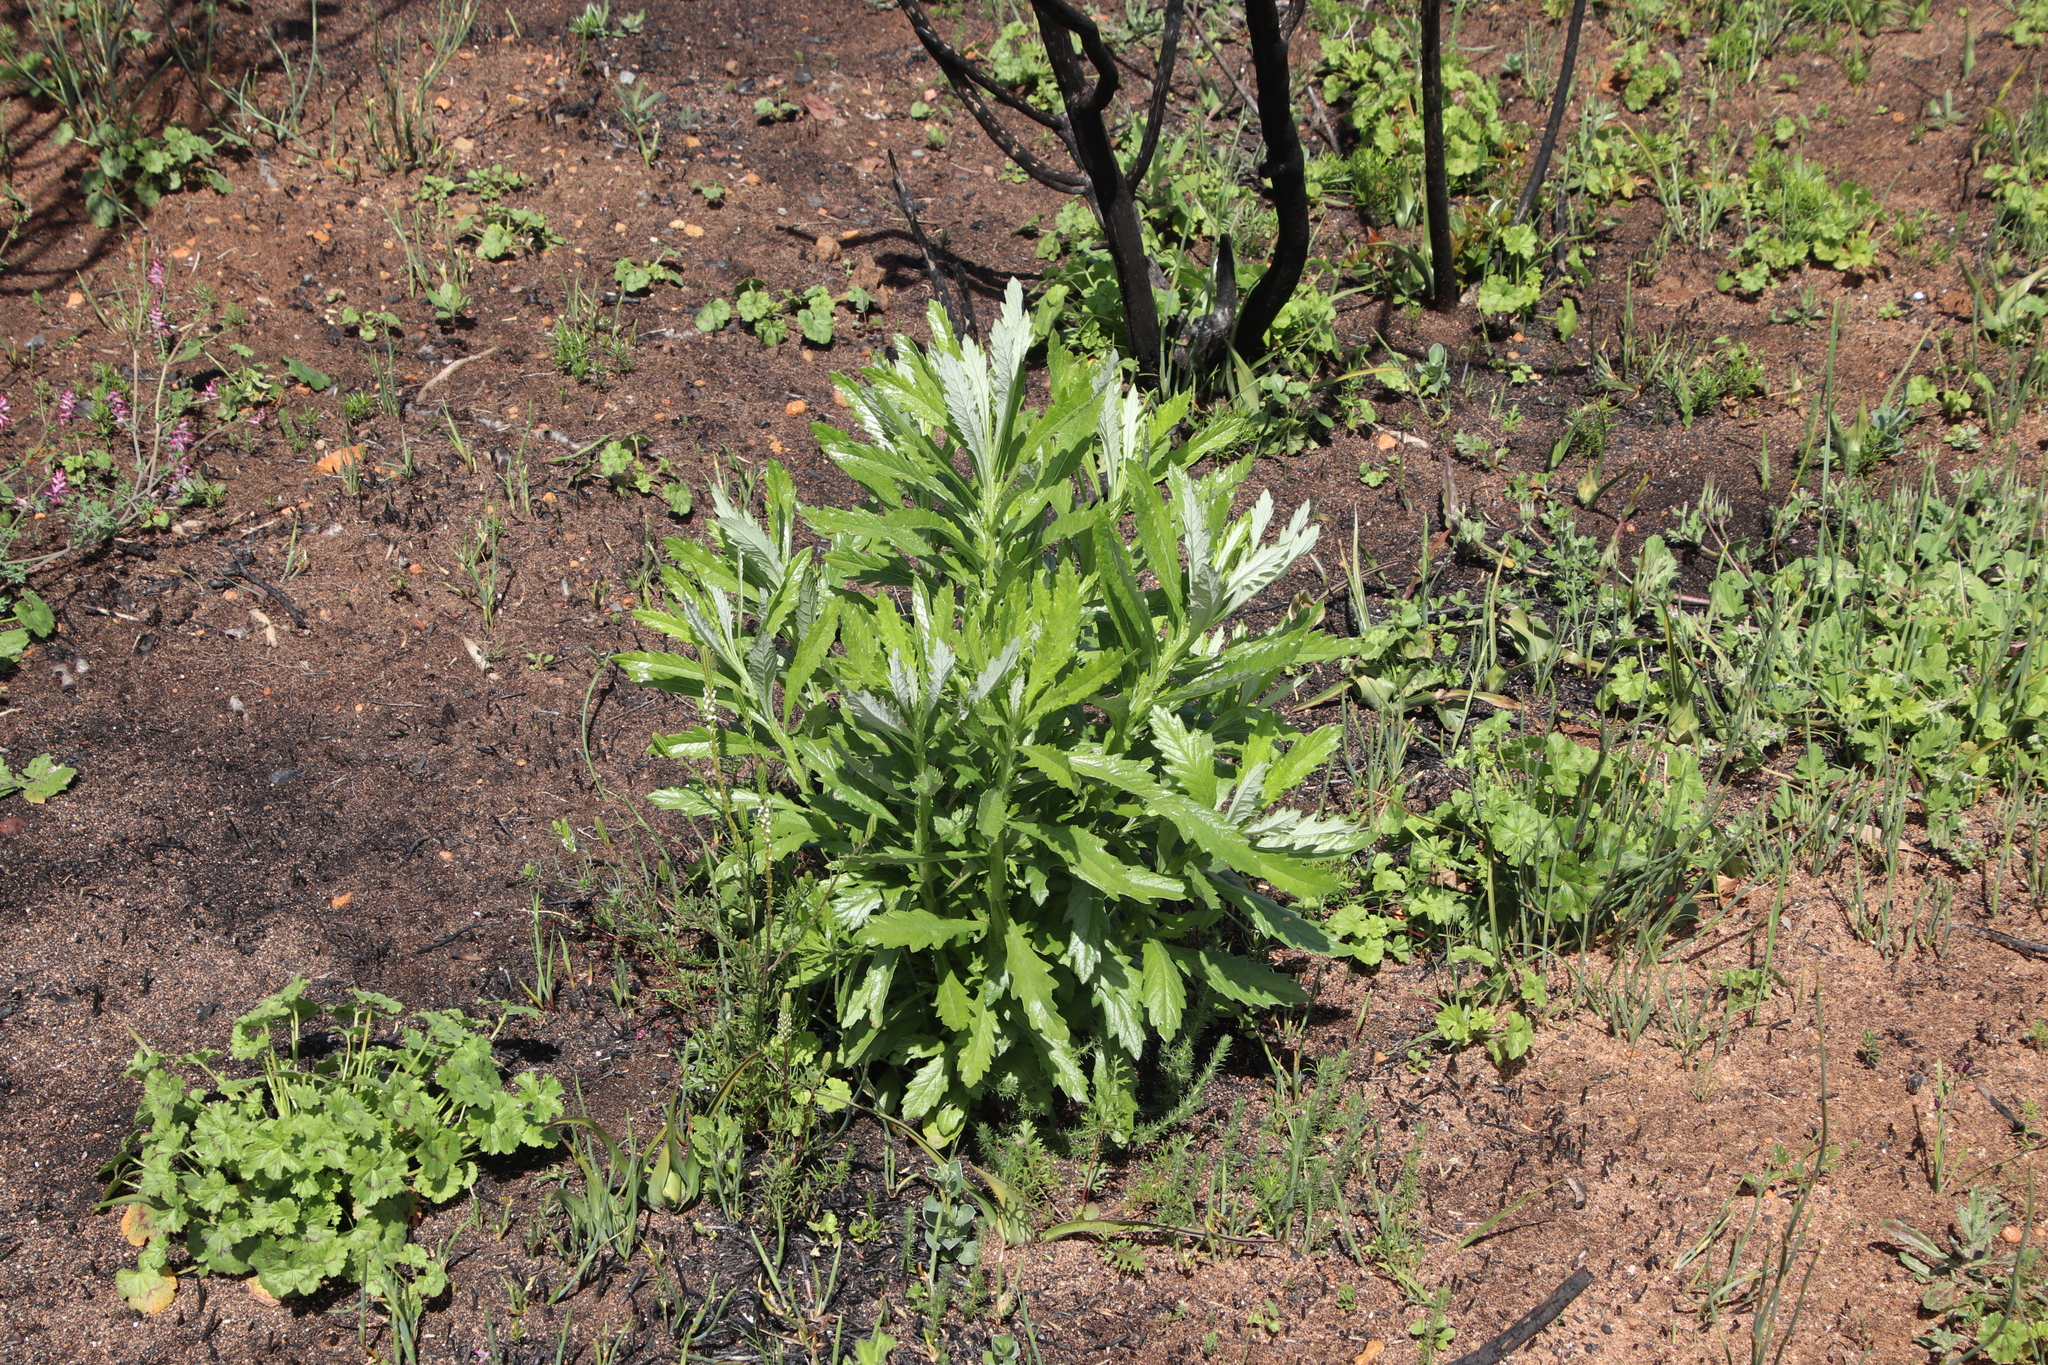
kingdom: Plantae
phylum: Tracheophyta
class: Magnoliopsida
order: Asterales
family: Asteraceae
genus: Senecio
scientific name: Senecio pterophorus
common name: Shoddy ragwort
